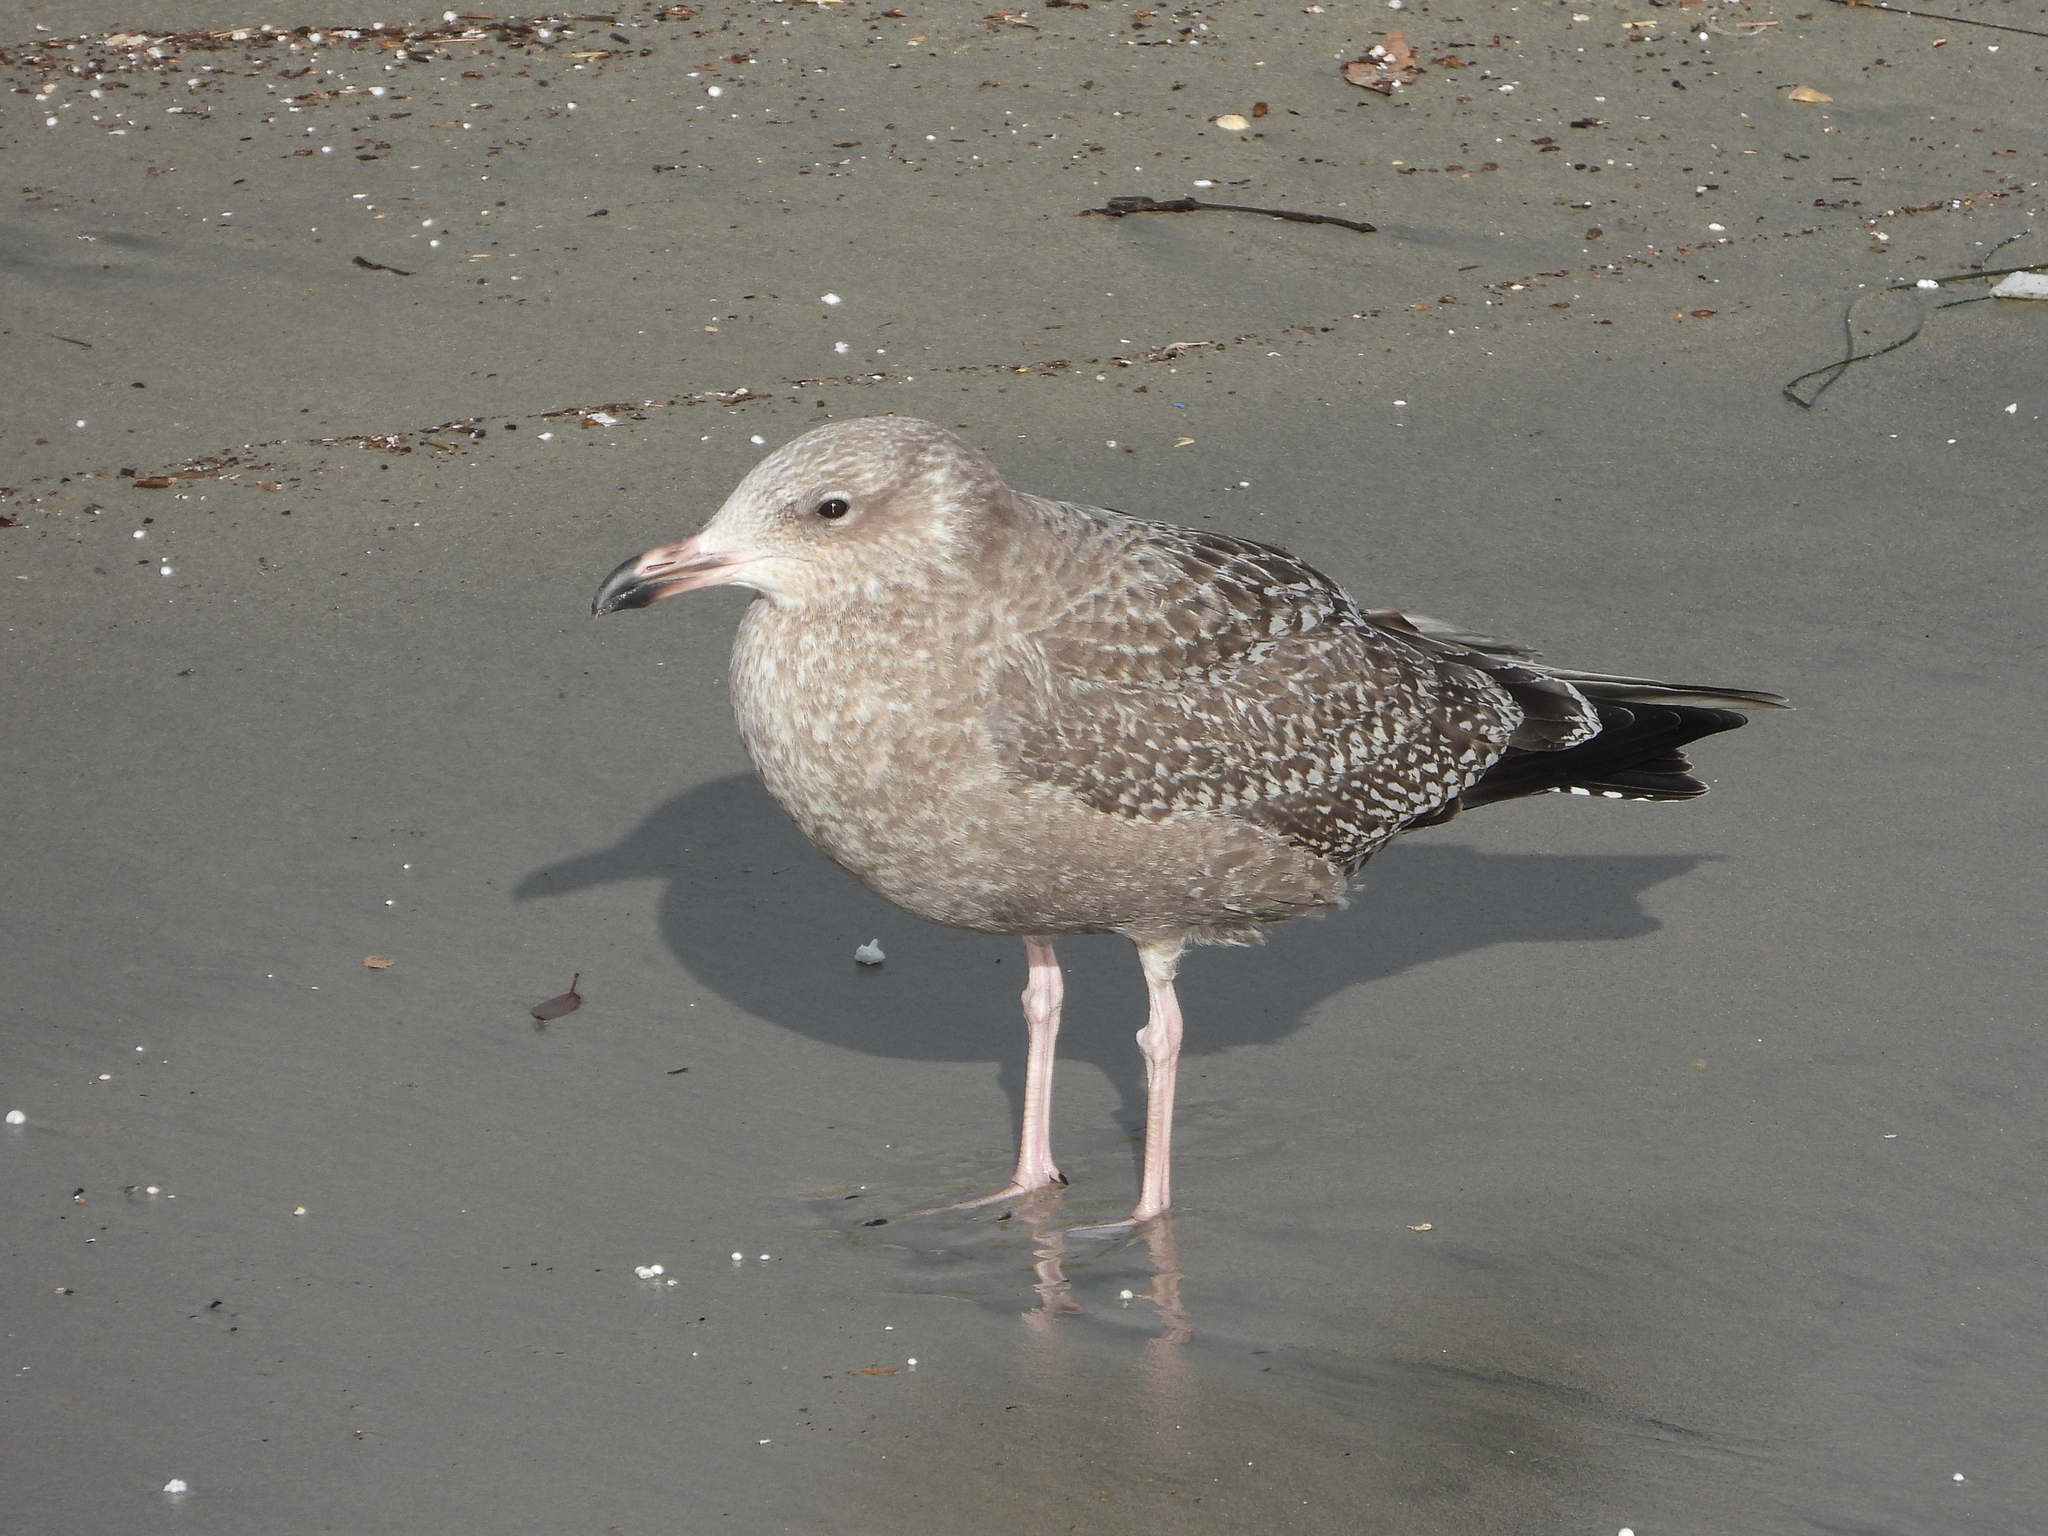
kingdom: Animalia
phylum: Chordata
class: Aves
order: Charadriiformes
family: Laridae
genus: Larus
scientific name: Larus argentatus
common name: Herring gull
